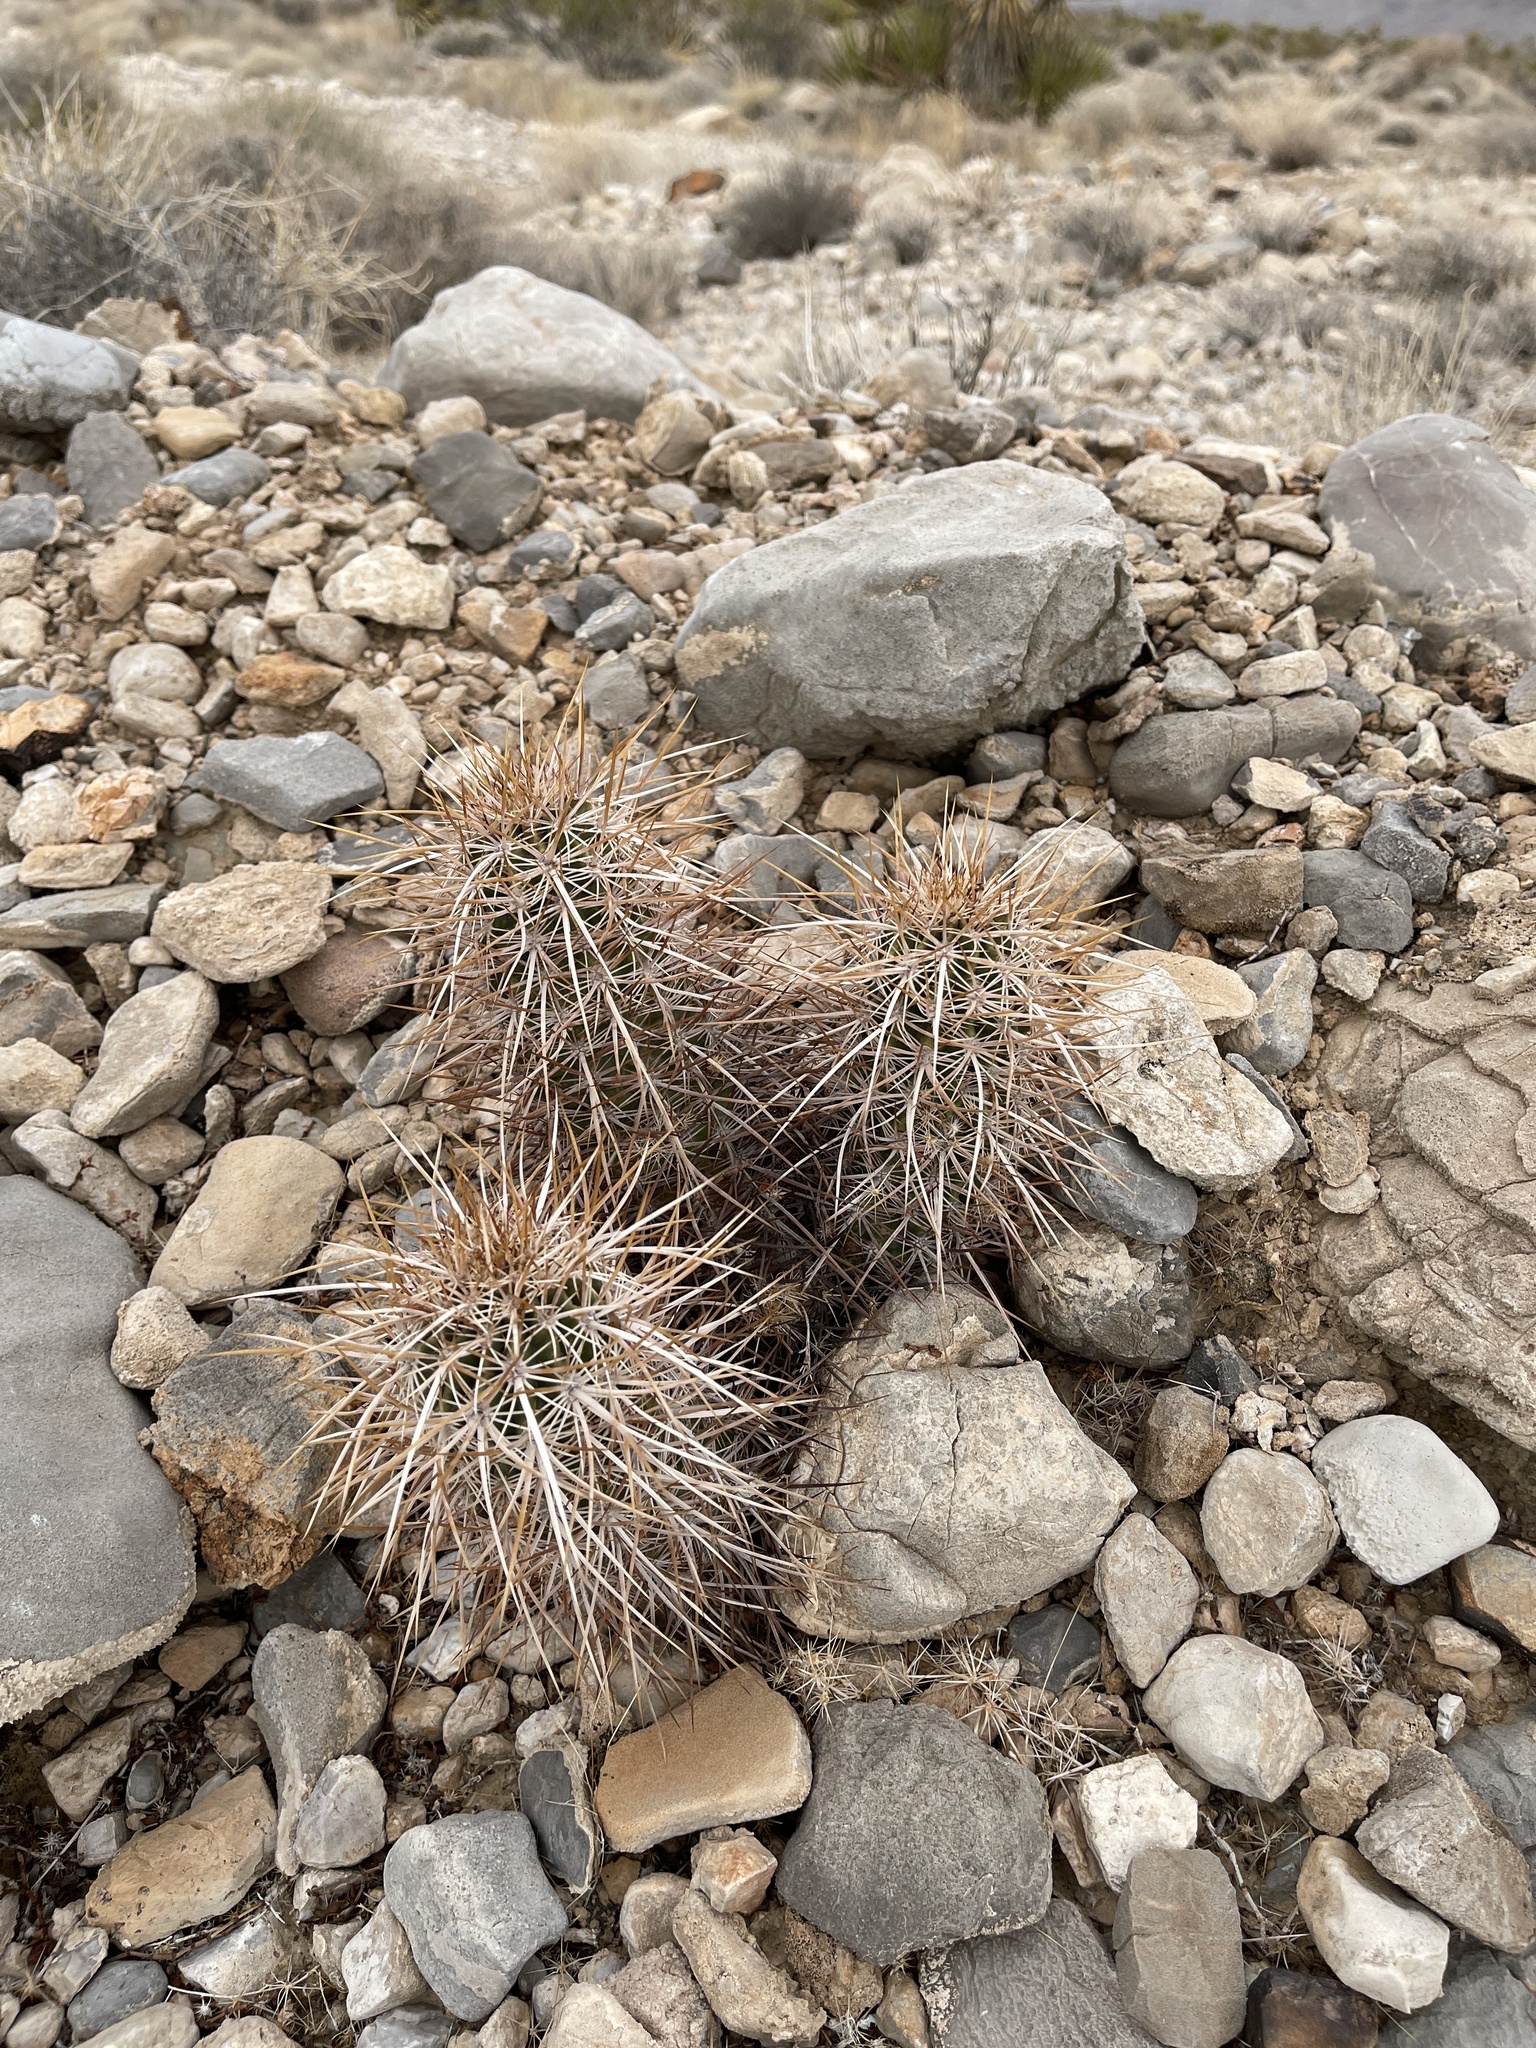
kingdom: Plantae
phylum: Tracheophyta
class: Magnoliopsida
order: Caryophyllales
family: Cactaceae
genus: Echinocereus
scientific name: Echinocereus engelmannii
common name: Engelmann's hedgehog cactus
